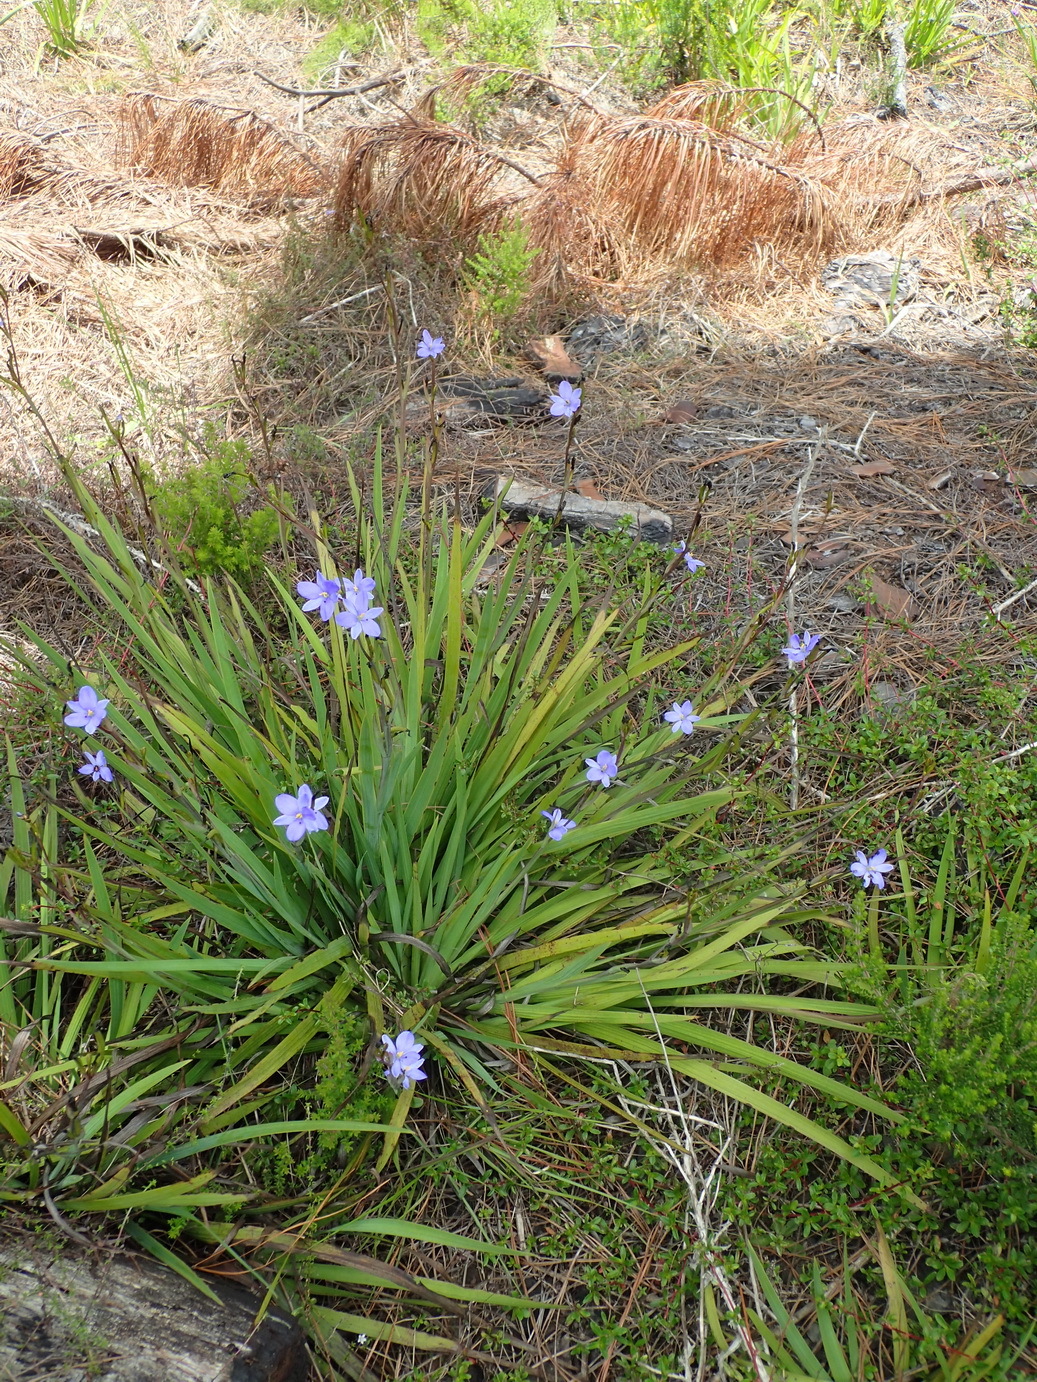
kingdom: Plantae
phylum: Tracheophyta
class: Liliopsida
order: Asparagales
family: Iridaceae
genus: Aristea
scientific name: Aristea ensifolia
